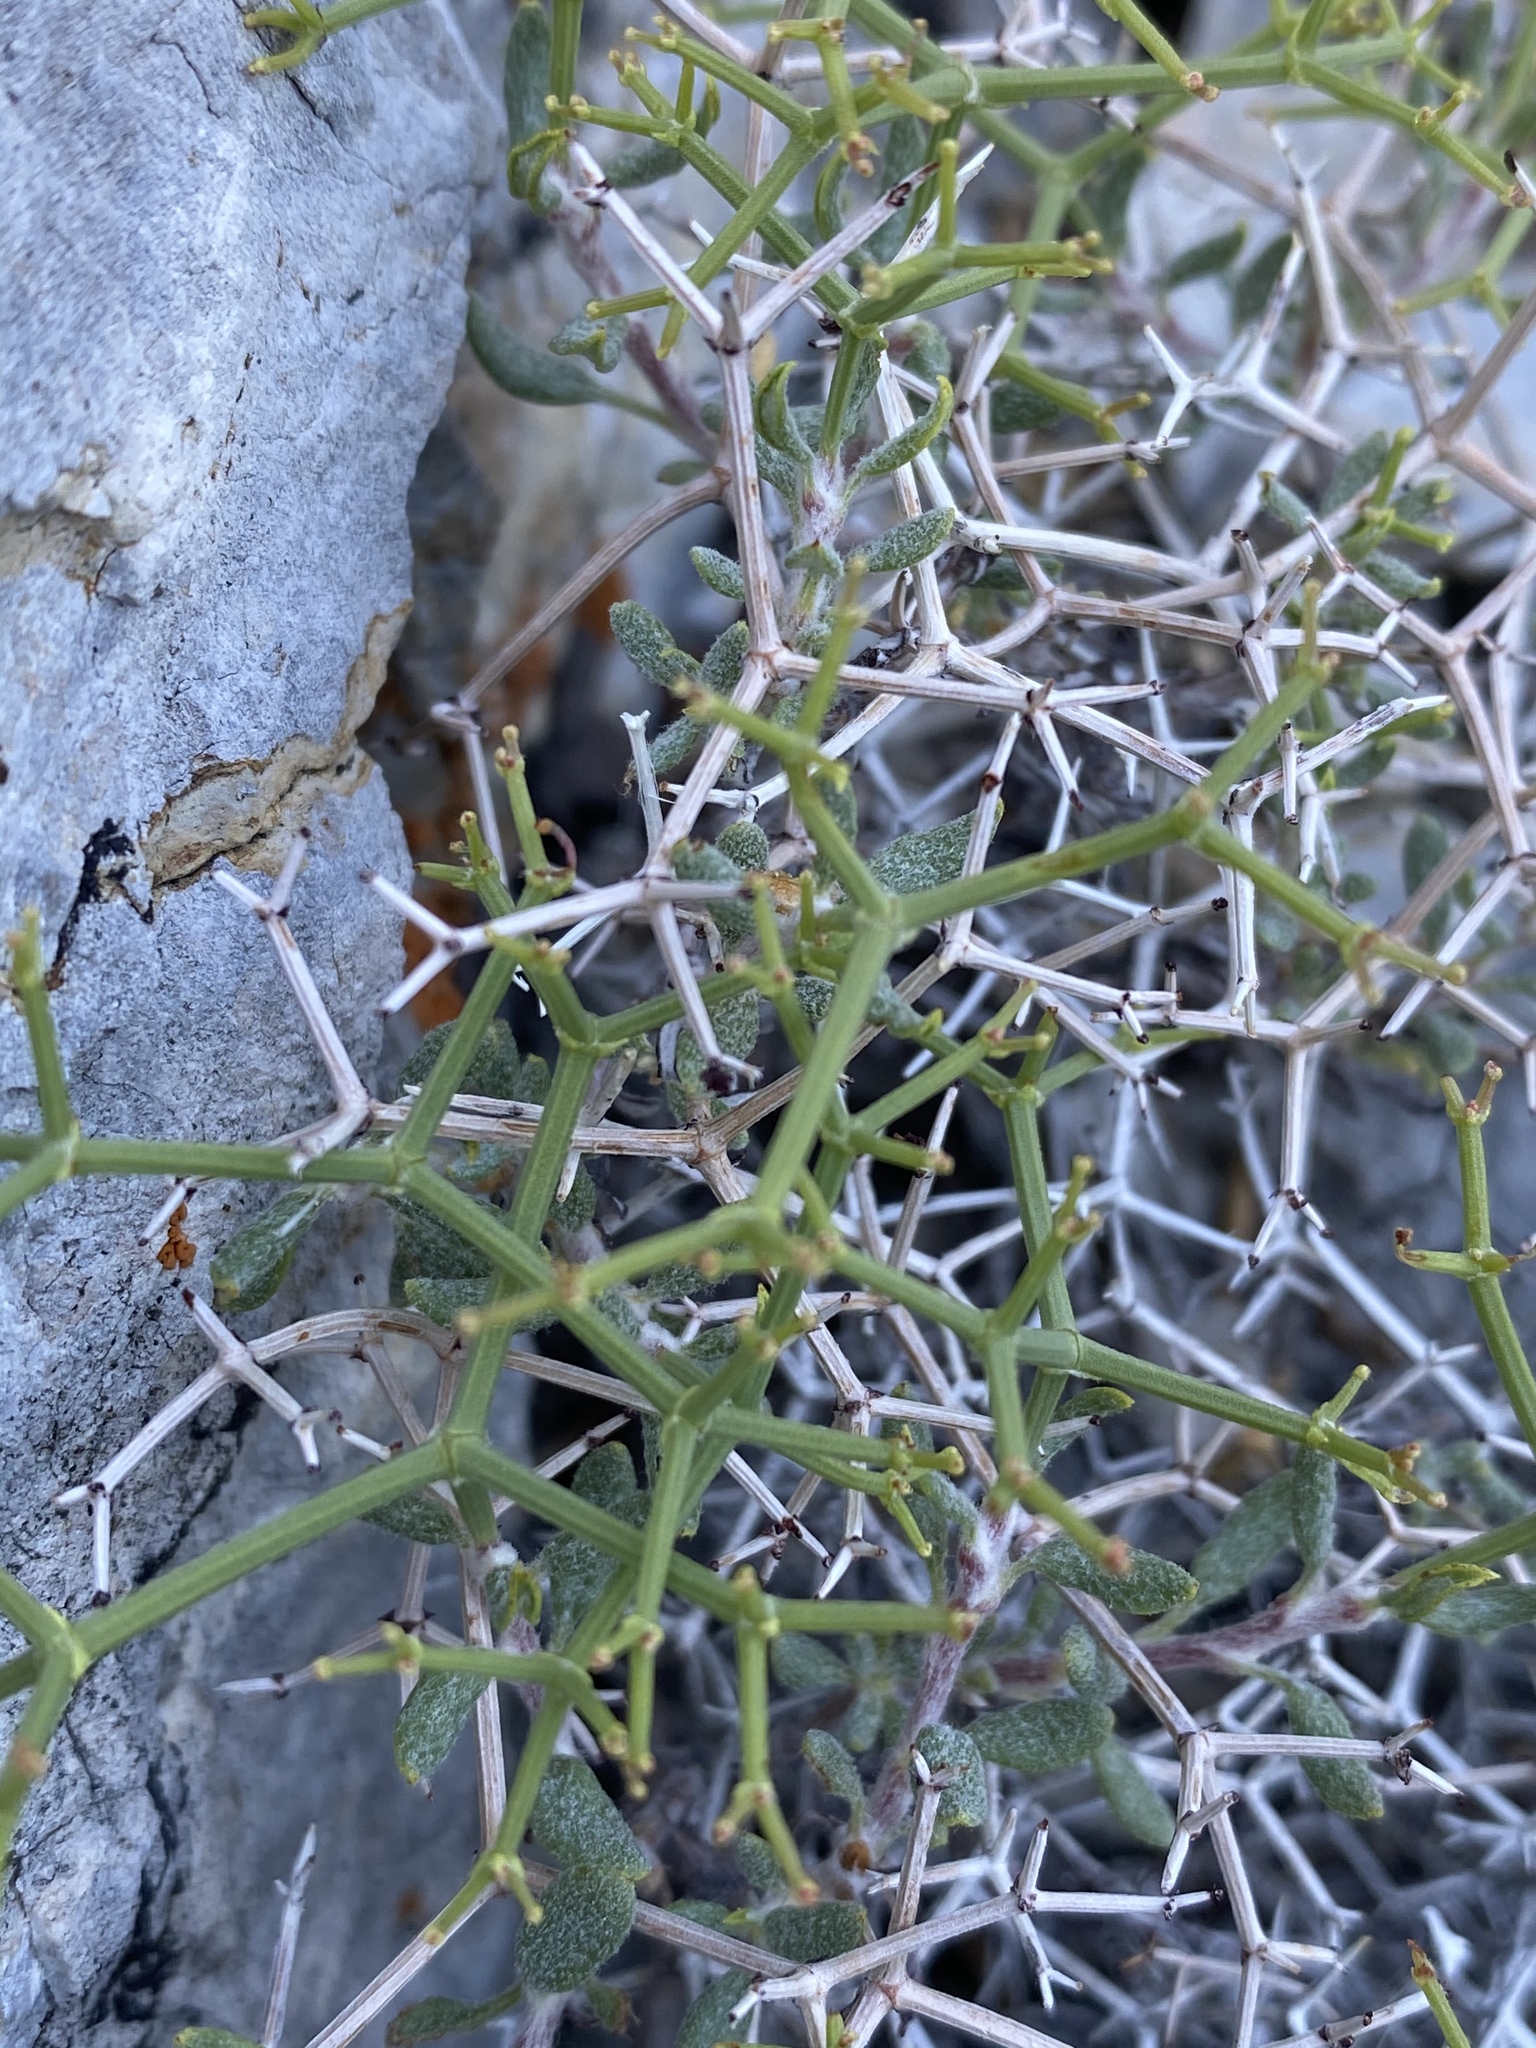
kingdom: Plantae
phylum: Tracheophyta
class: Magnoliopsida
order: Caryophyllales
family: Polygonaceae
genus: Eriogonum
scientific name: Eriogonum heermannii
